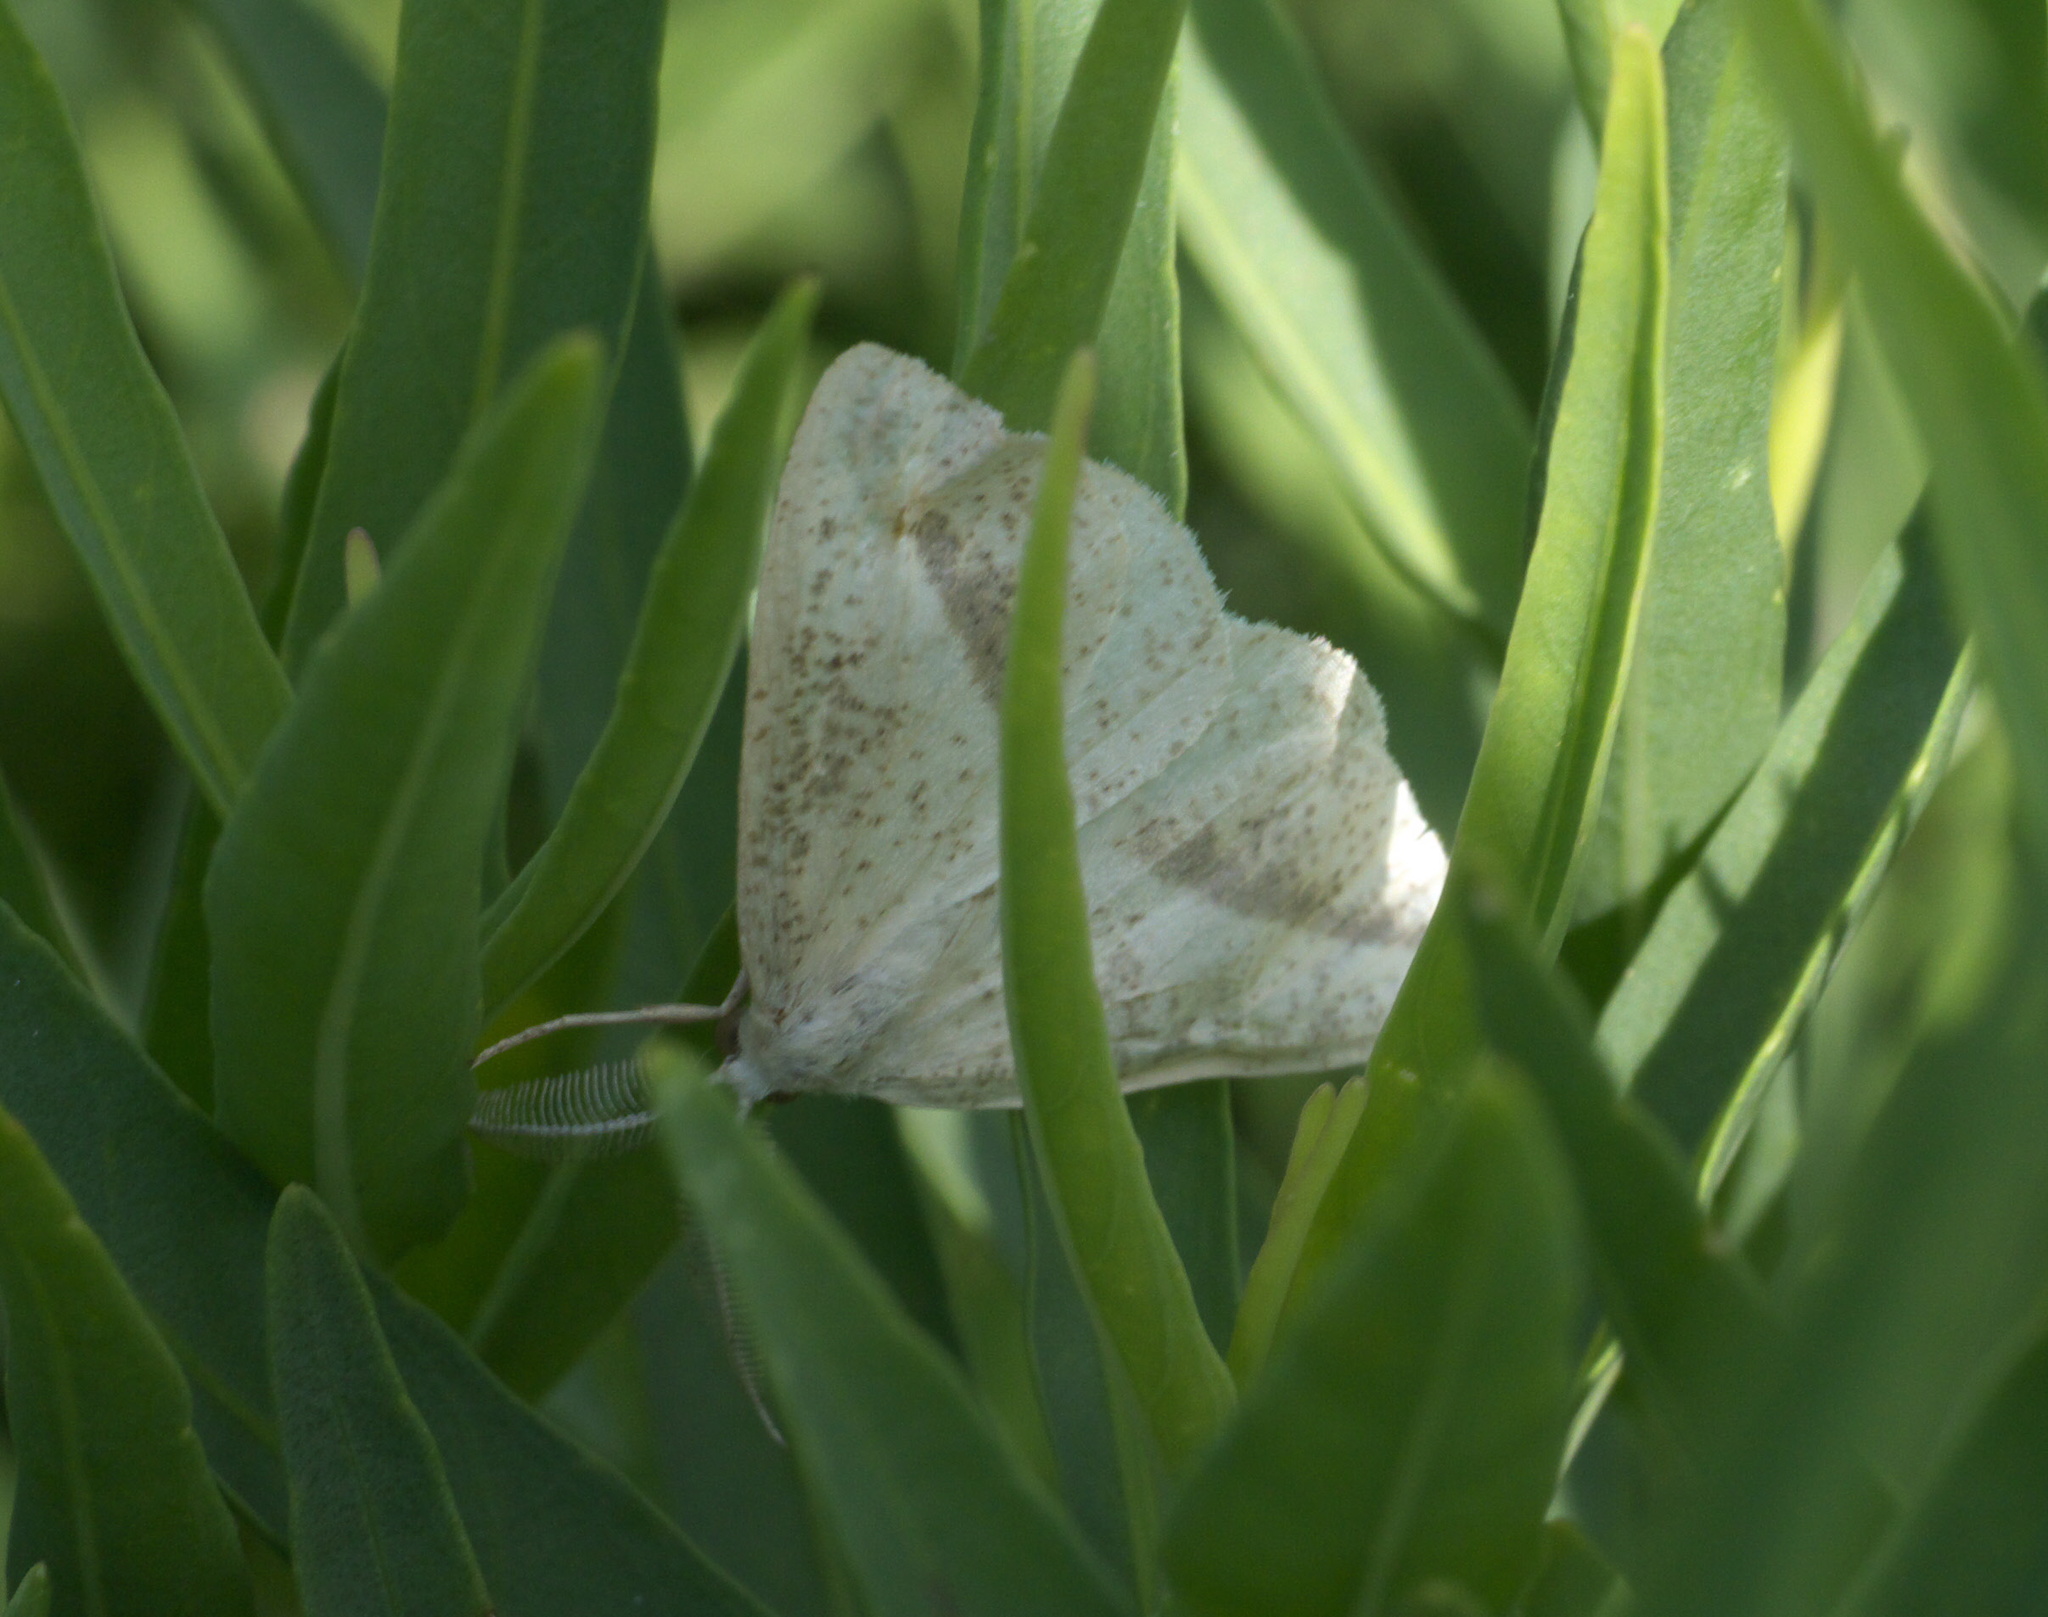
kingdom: Animalia
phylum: Arthropoda
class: Insecta
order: Lepidoptera
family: Geometridae
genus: Lychnosea
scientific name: Lychnosea intermicata
